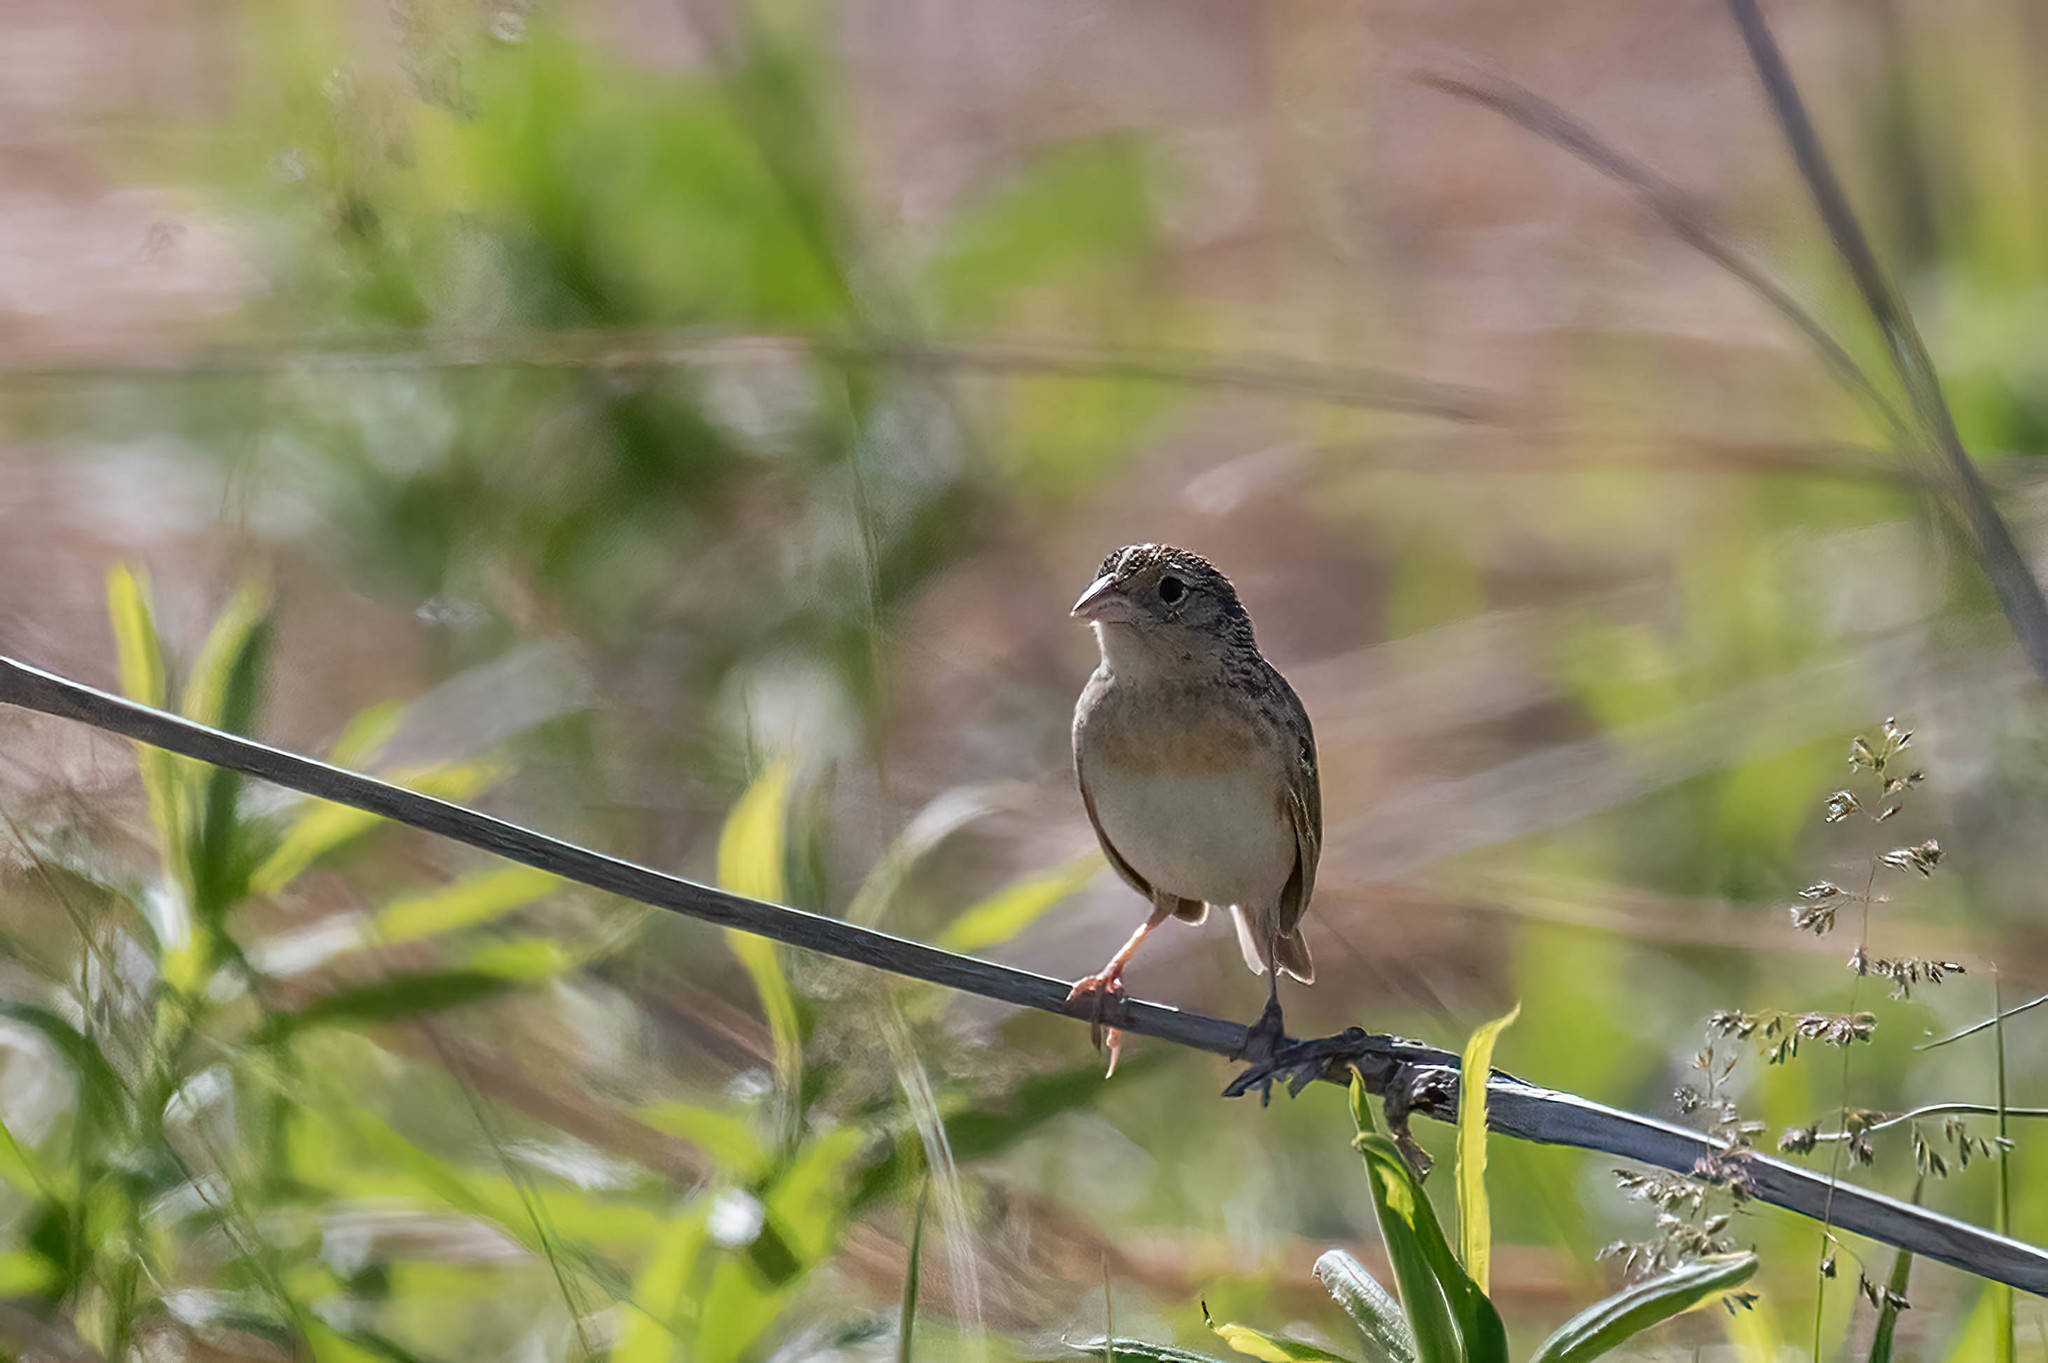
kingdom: Animalia
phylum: Chordata
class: Aves
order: Passeriformes
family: Passerellidae
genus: Ammodramus
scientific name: Ammodramus savannarum
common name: Grasshopper sparrow
